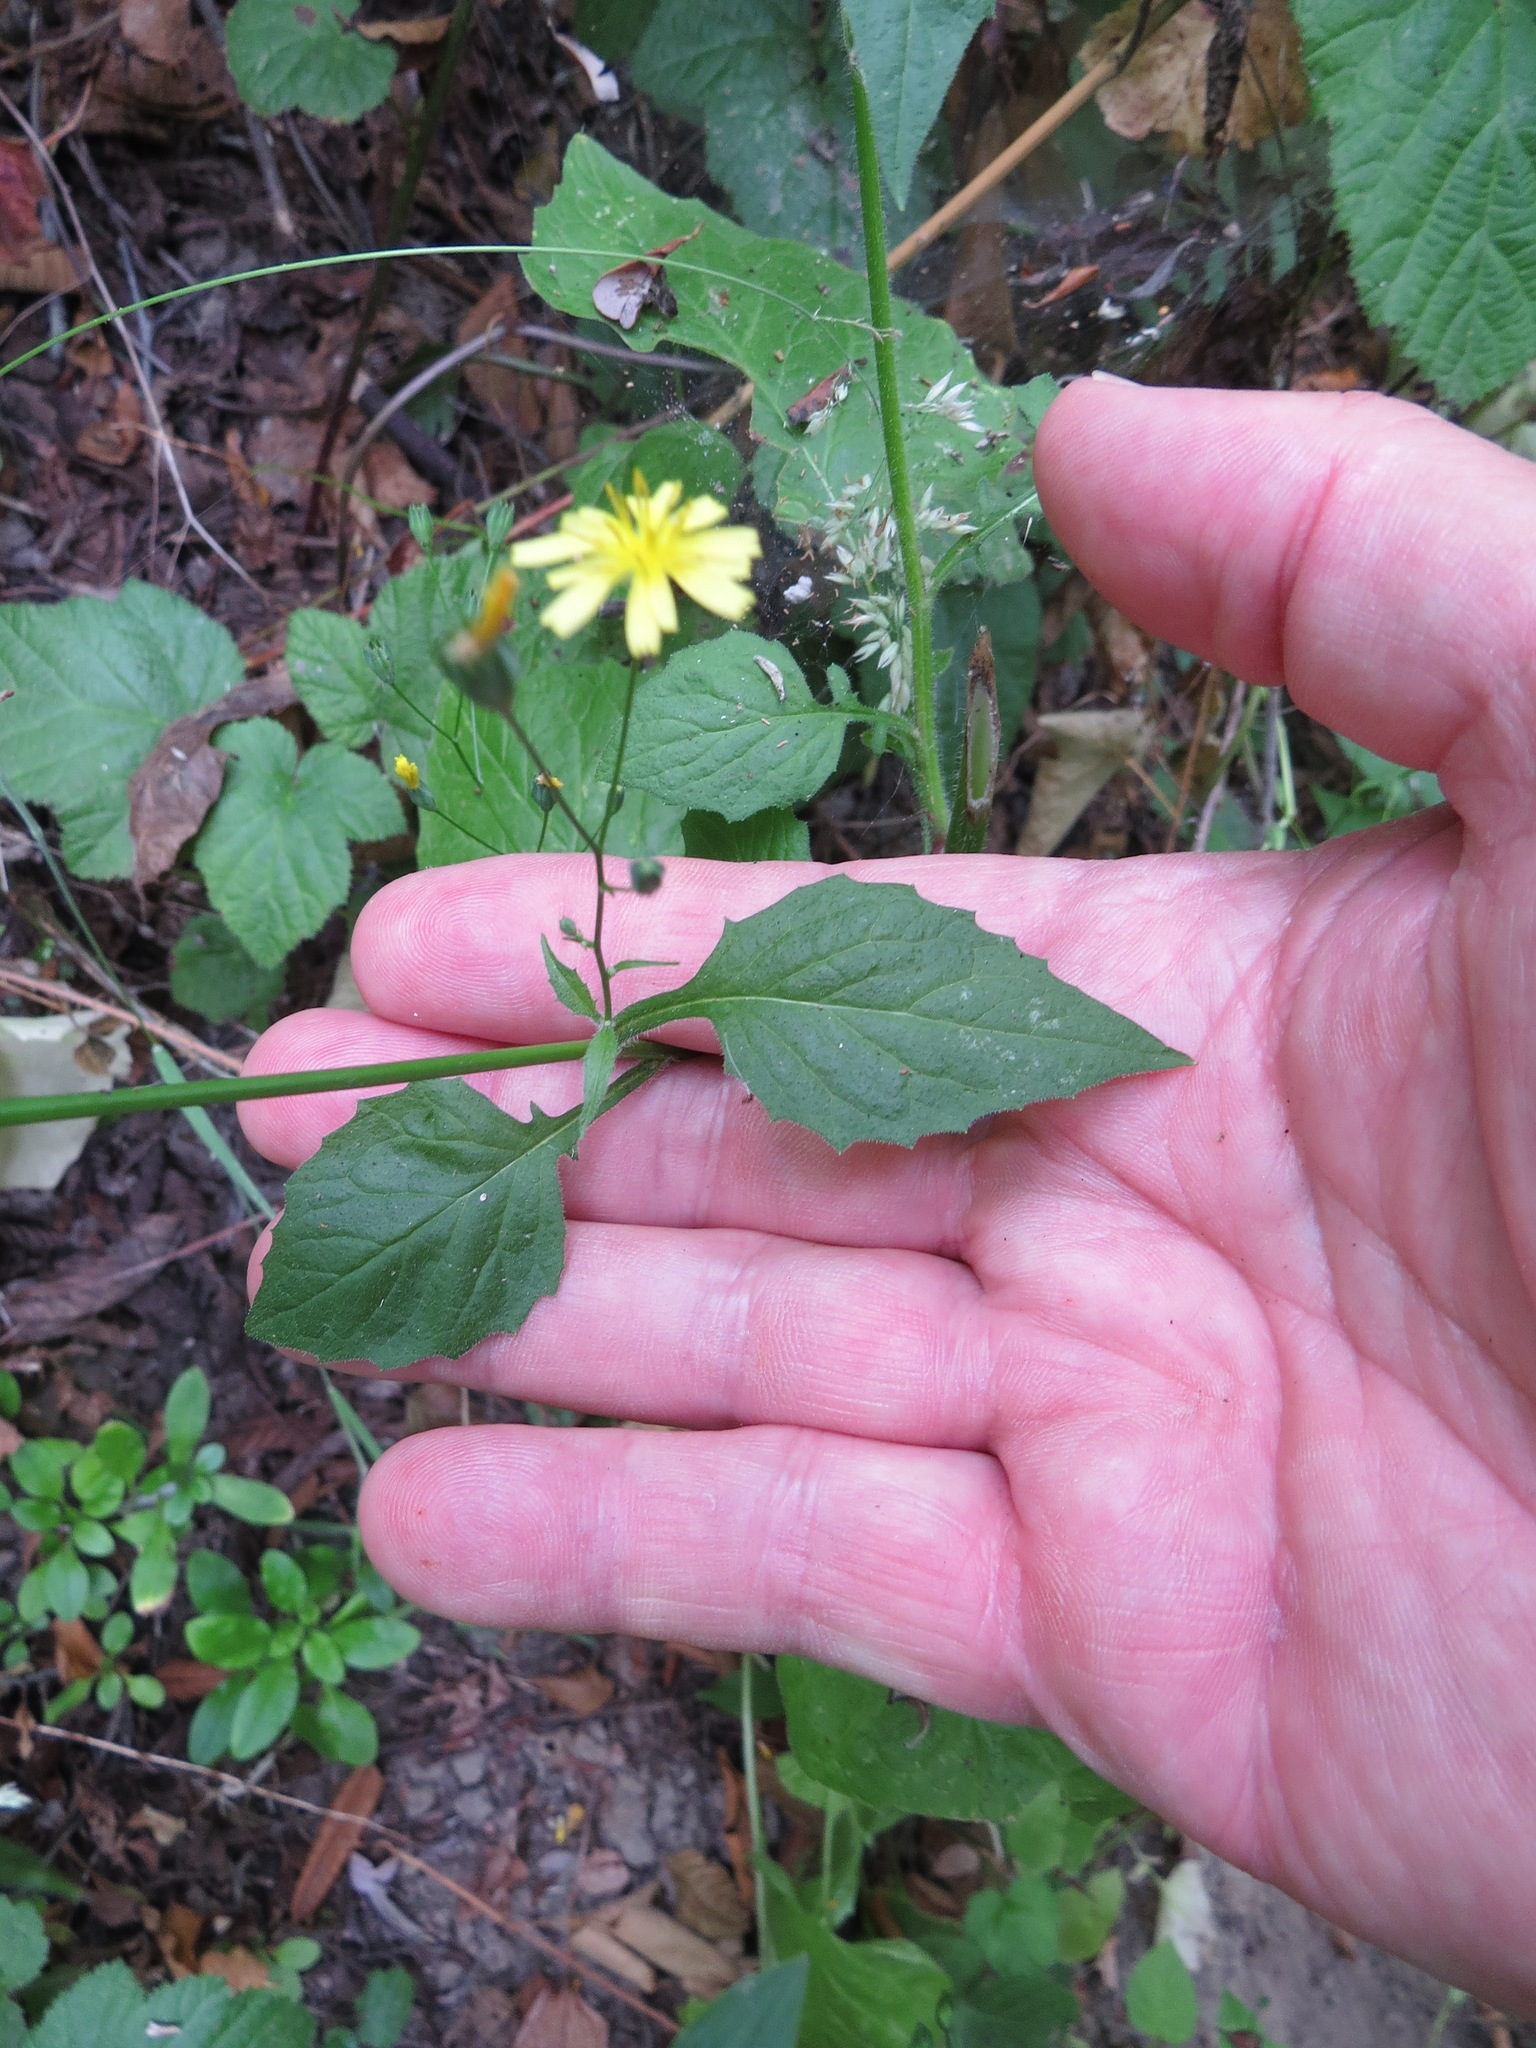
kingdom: Plantae
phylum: Tracheophyta
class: Magnoliopsida
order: Asterales
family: Asteraceae
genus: Lapsana
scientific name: Lapsana communis
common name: Nipplewort
